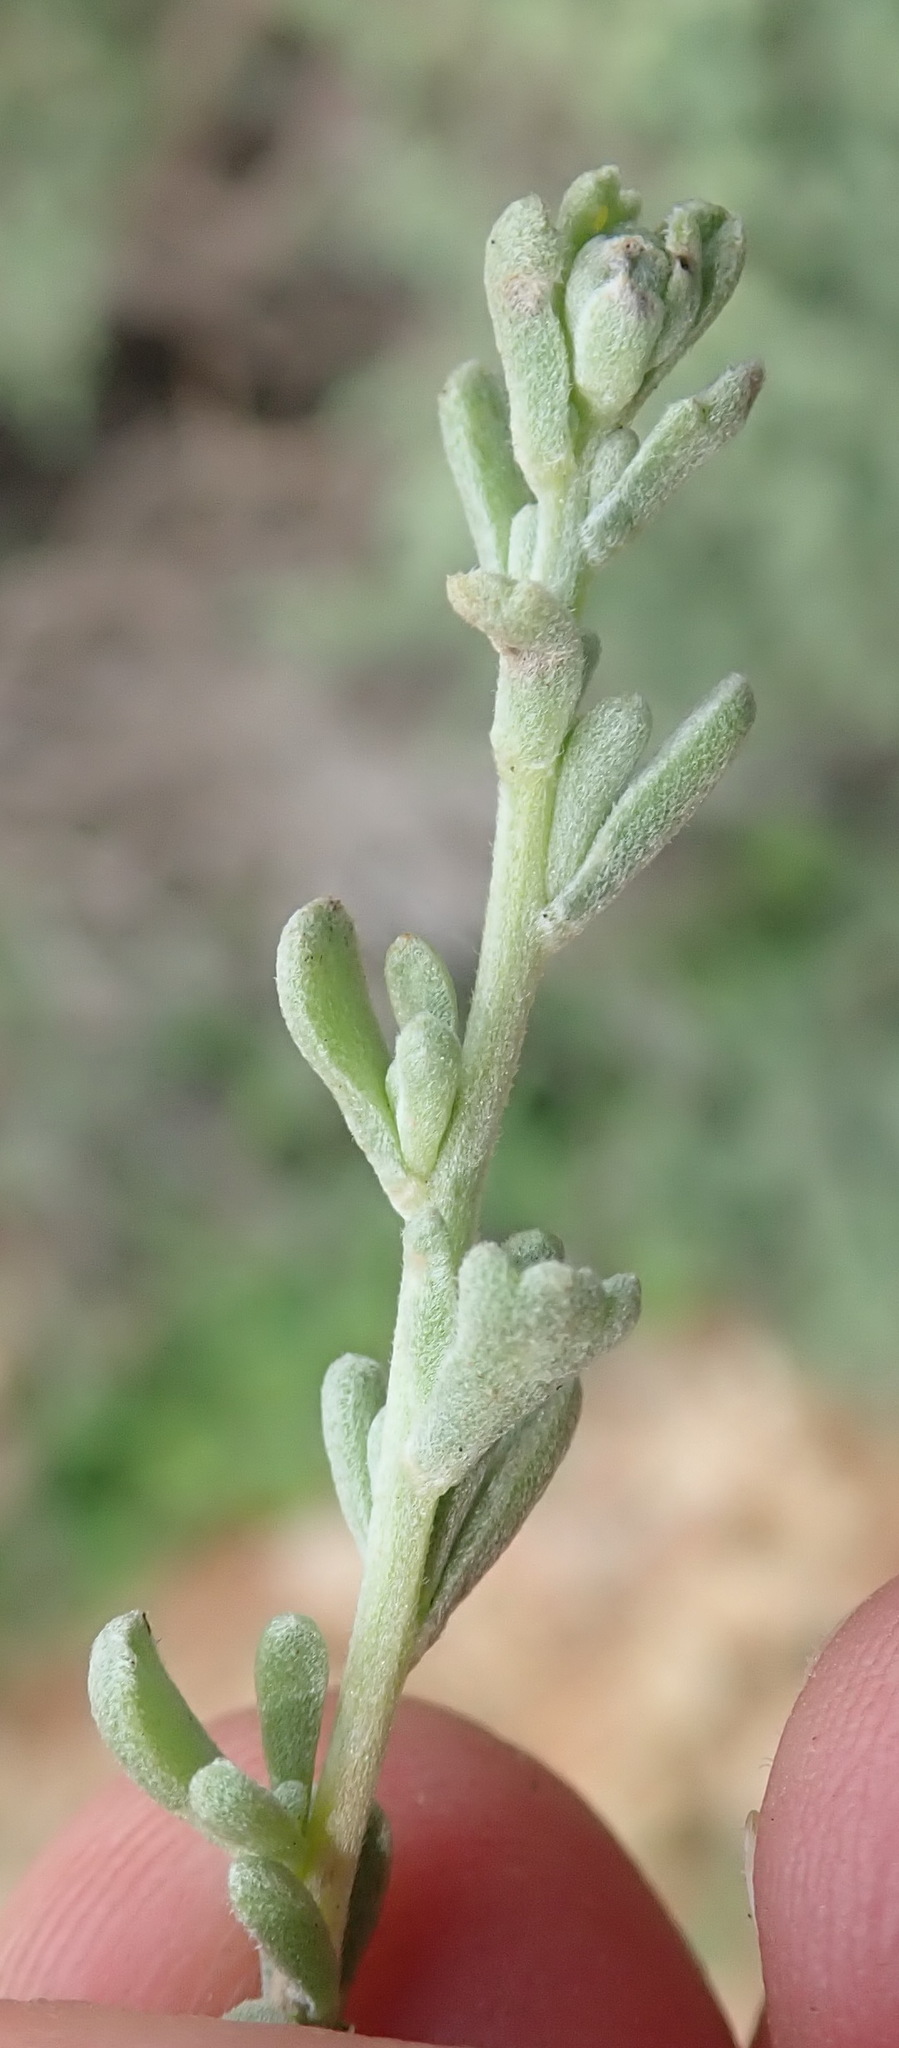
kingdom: Plantae
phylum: Tracheophyta
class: Magnoliopsida
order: Asterales
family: Asteraceae
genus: Eriocephalus
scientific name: Eriocephalus africanus
